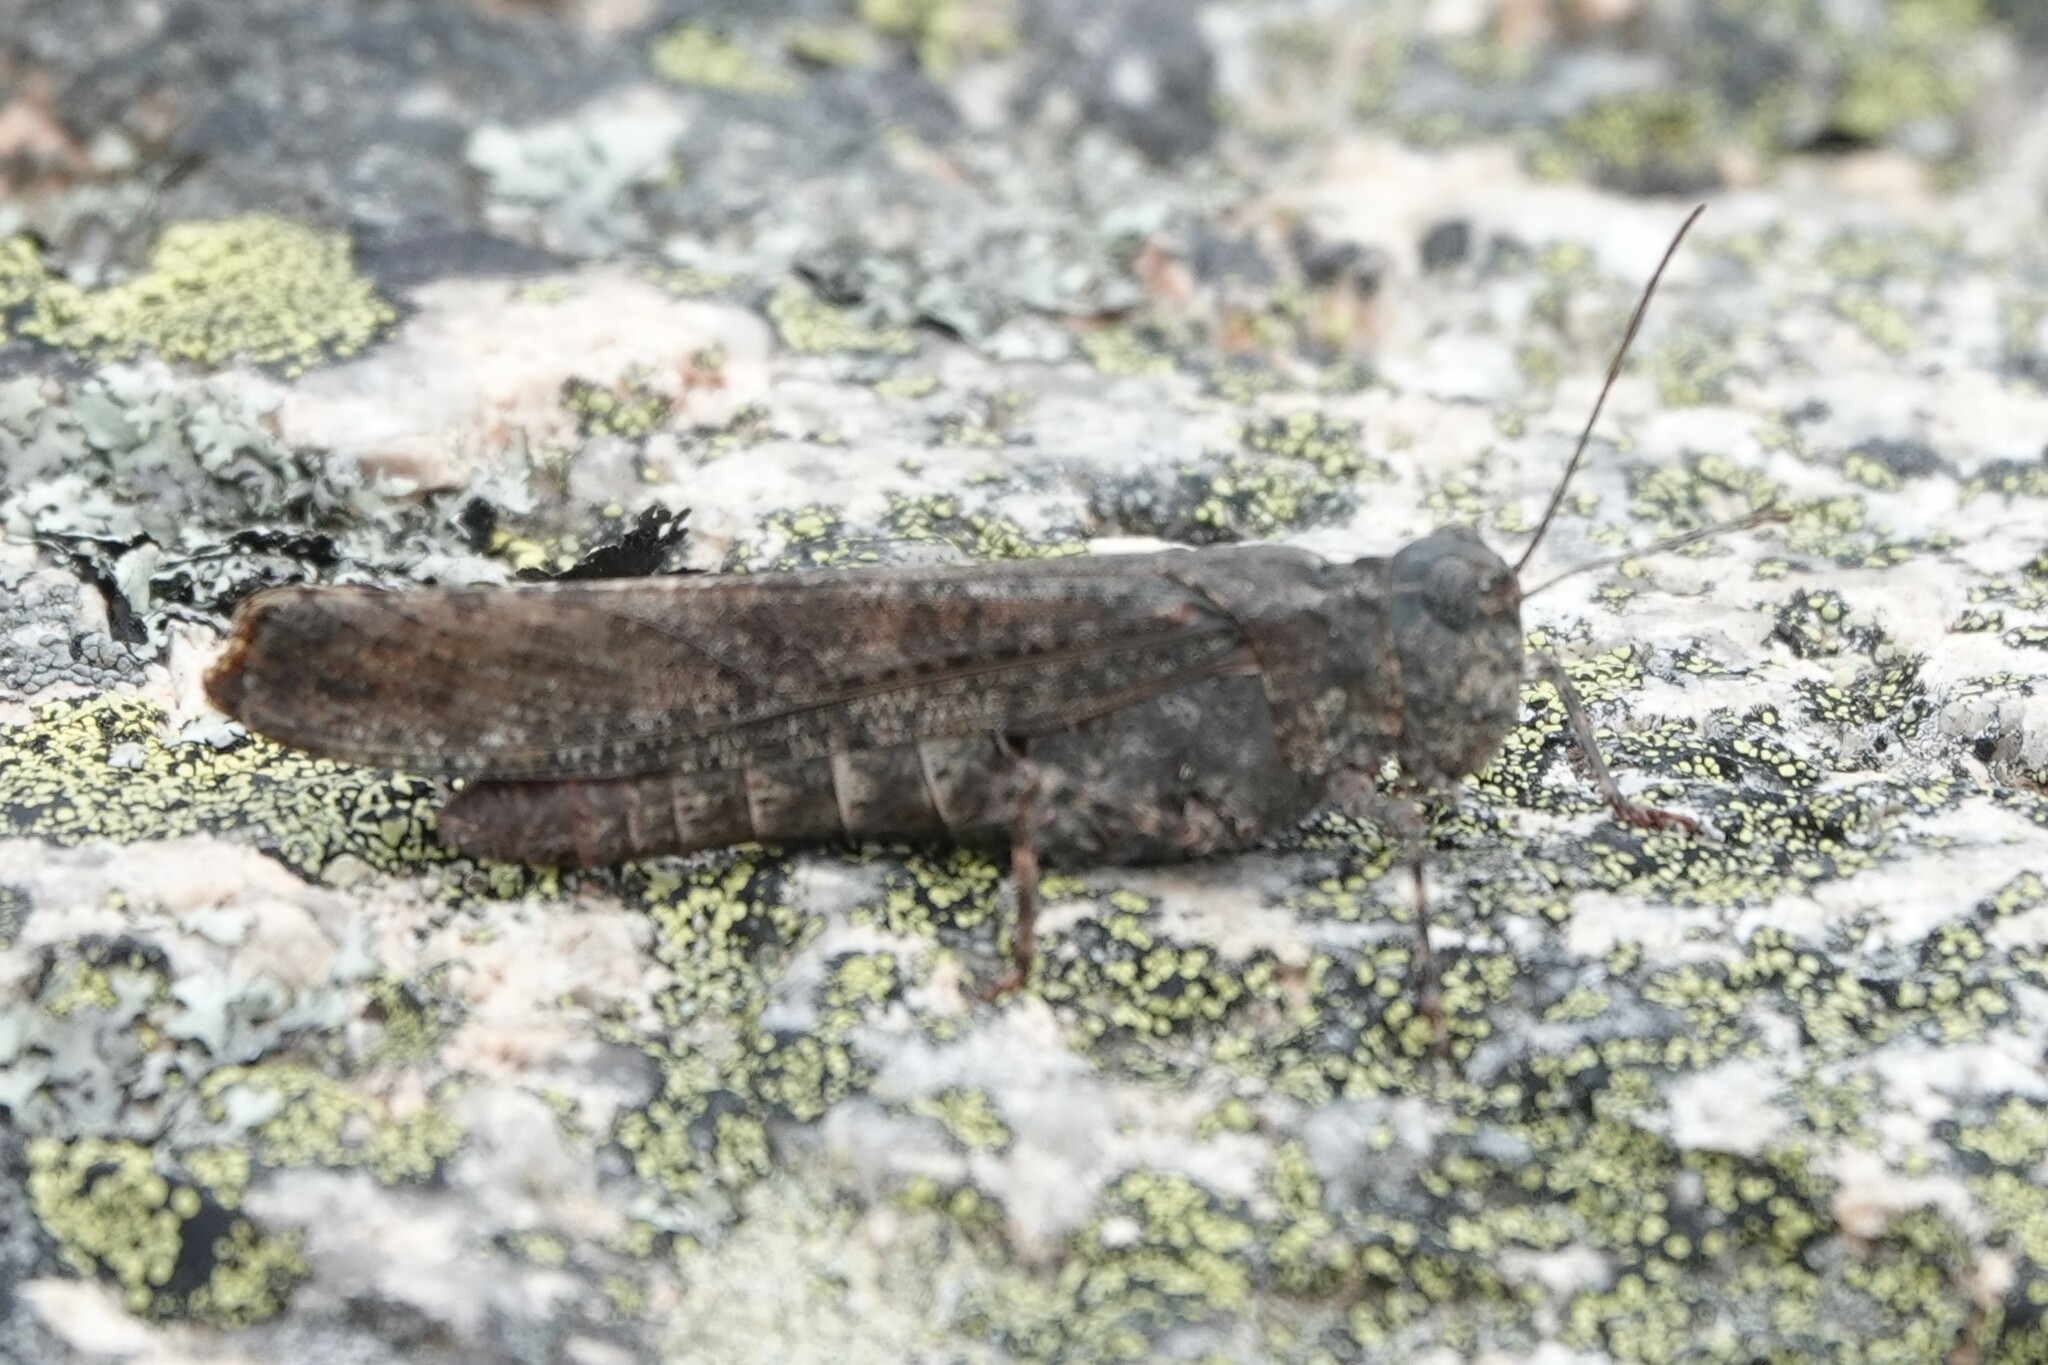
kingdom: Animalia
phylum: Arthropoda
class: Insecta
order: Orthoptera
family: Acrididae
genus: Trimerotropis
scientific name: Trimerotropis verruculata
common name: Crackling forest grasshopper
